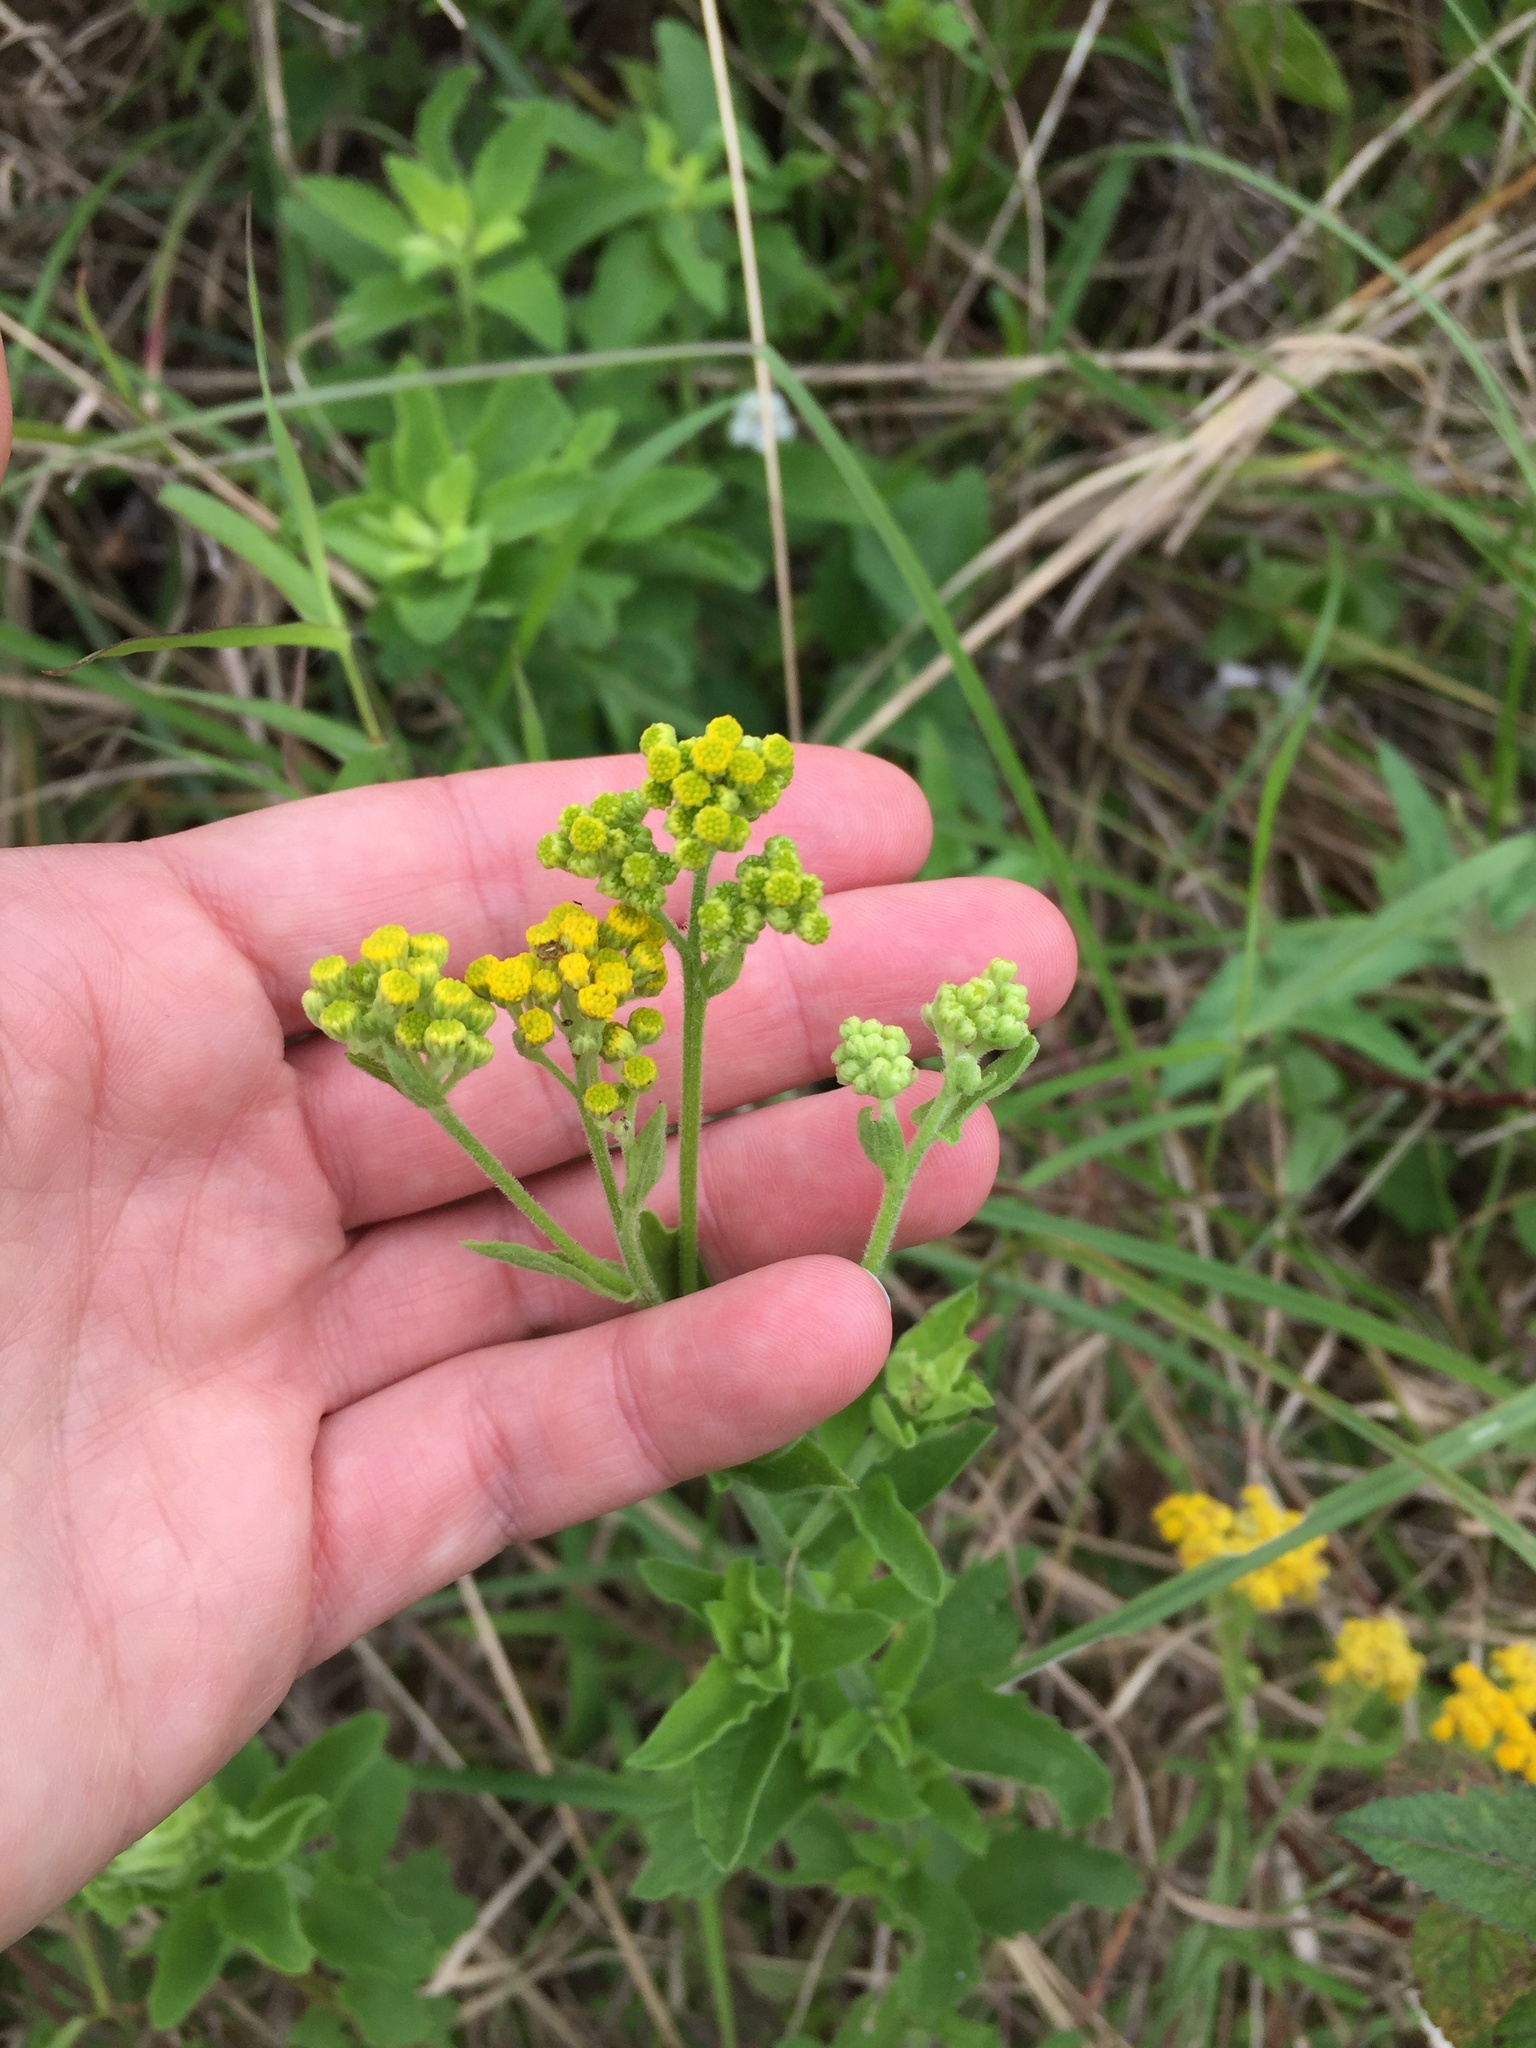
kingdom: Plantae
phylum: Tracheophyta
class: Magnoliopsida
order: Asterales
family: Asteraceae
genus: Nidorella
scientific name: Nidorella auriculata
